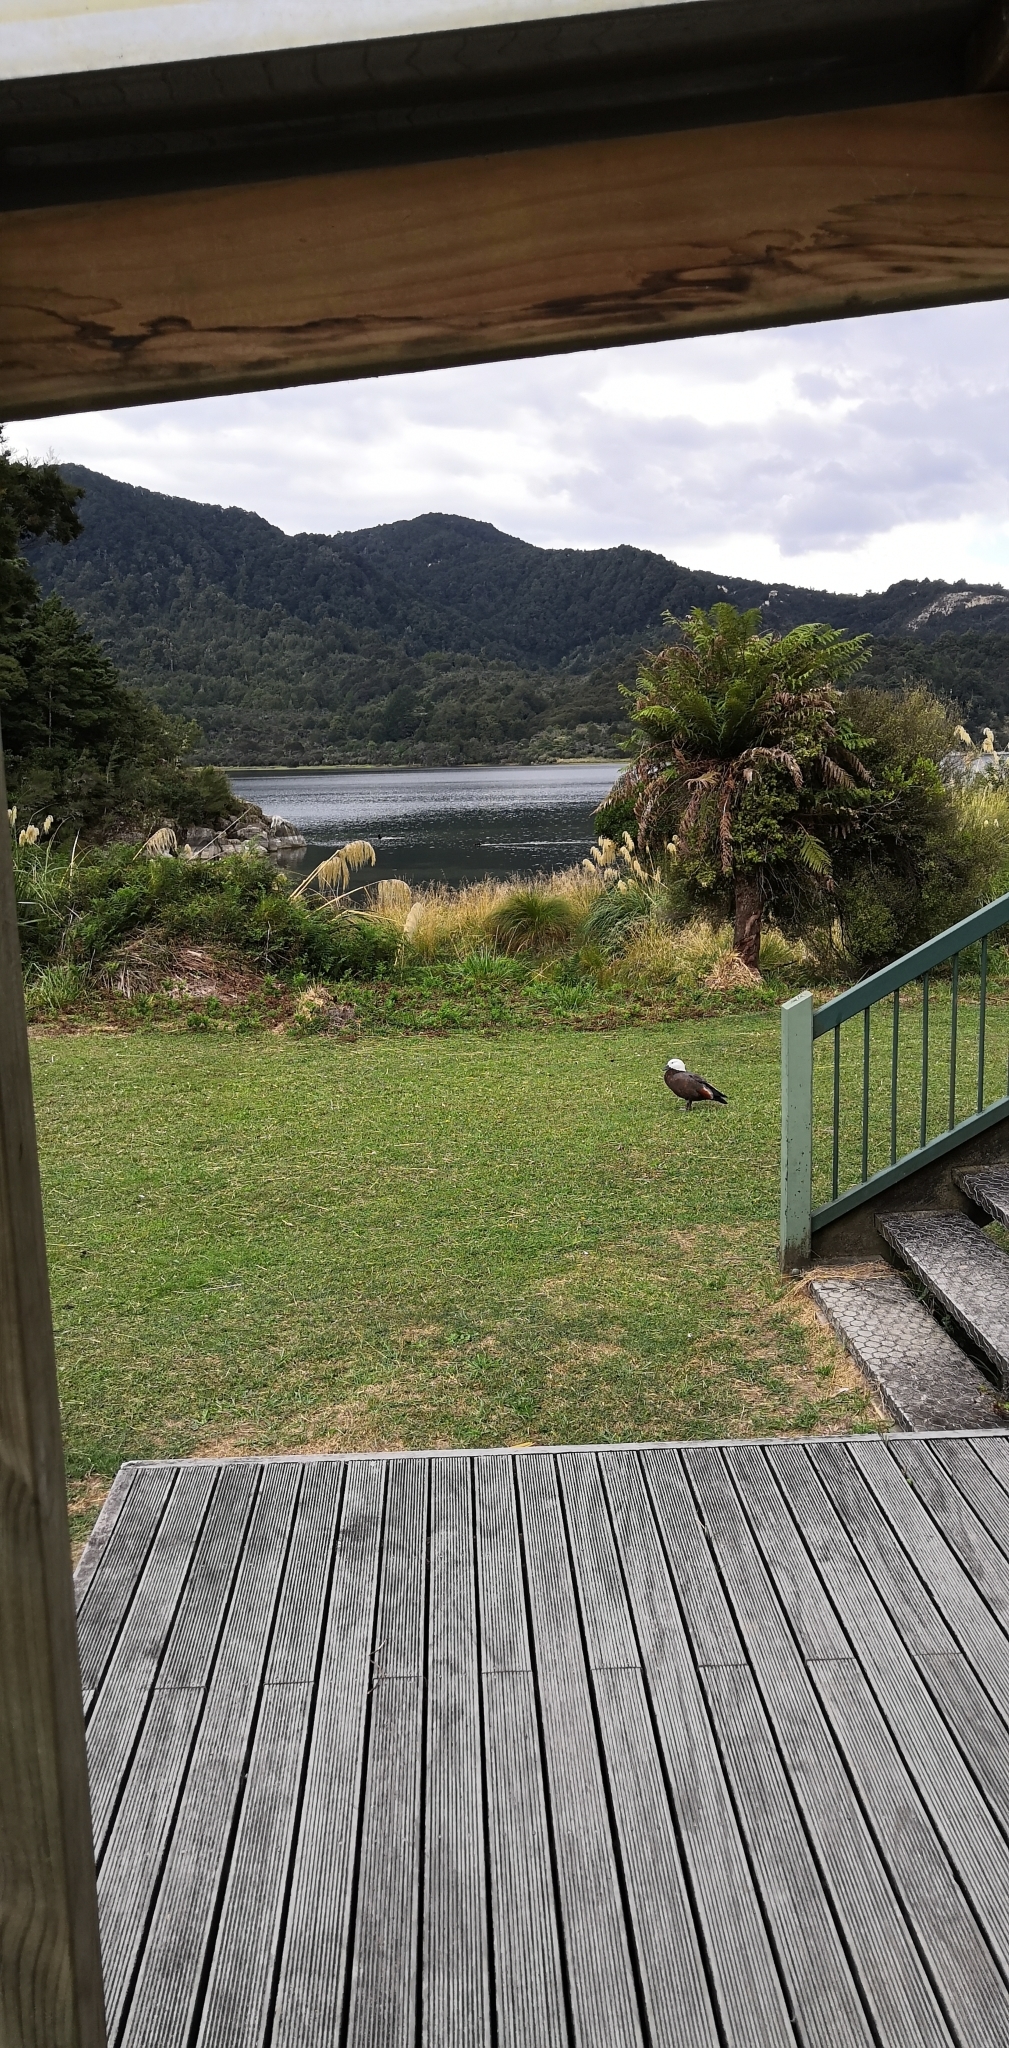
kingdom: Animalia
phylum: Chordata
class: Aves
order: Anseriformes
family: Anatidae
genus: Tadorna
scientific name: Tadorna variegata
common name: Paradise shelduck
